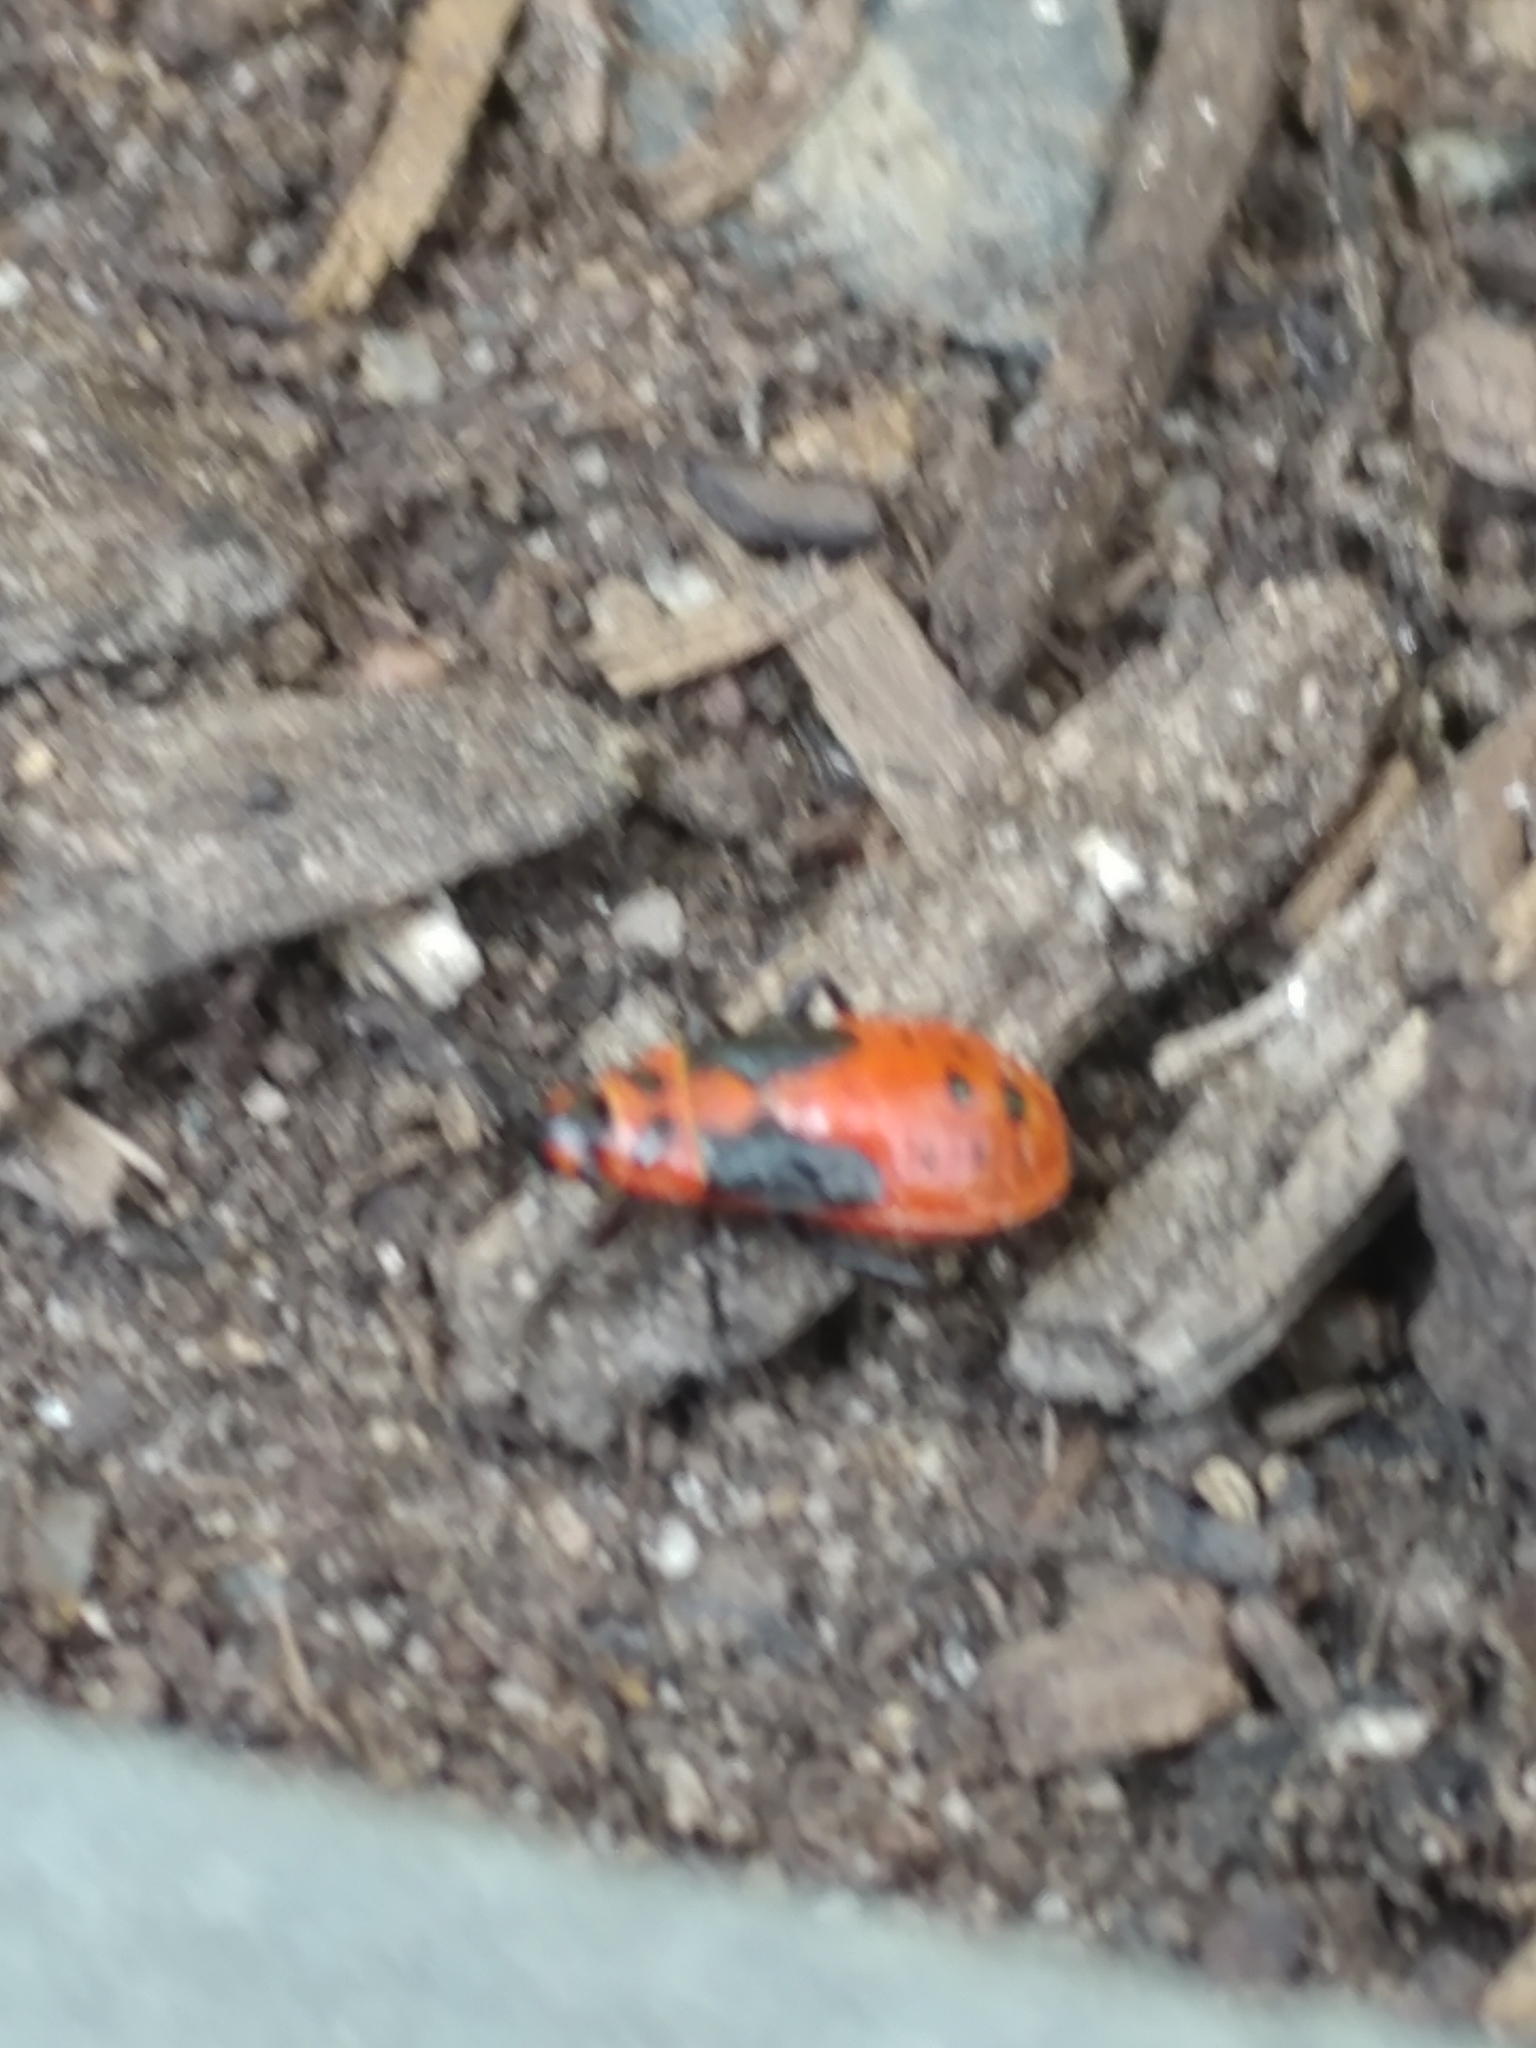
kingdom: Animalia
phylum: Arthropoda
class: Insecta
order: Hemiptera
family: Lygaeidae
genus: Lygaeus
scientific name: Lygaeus kalmii
